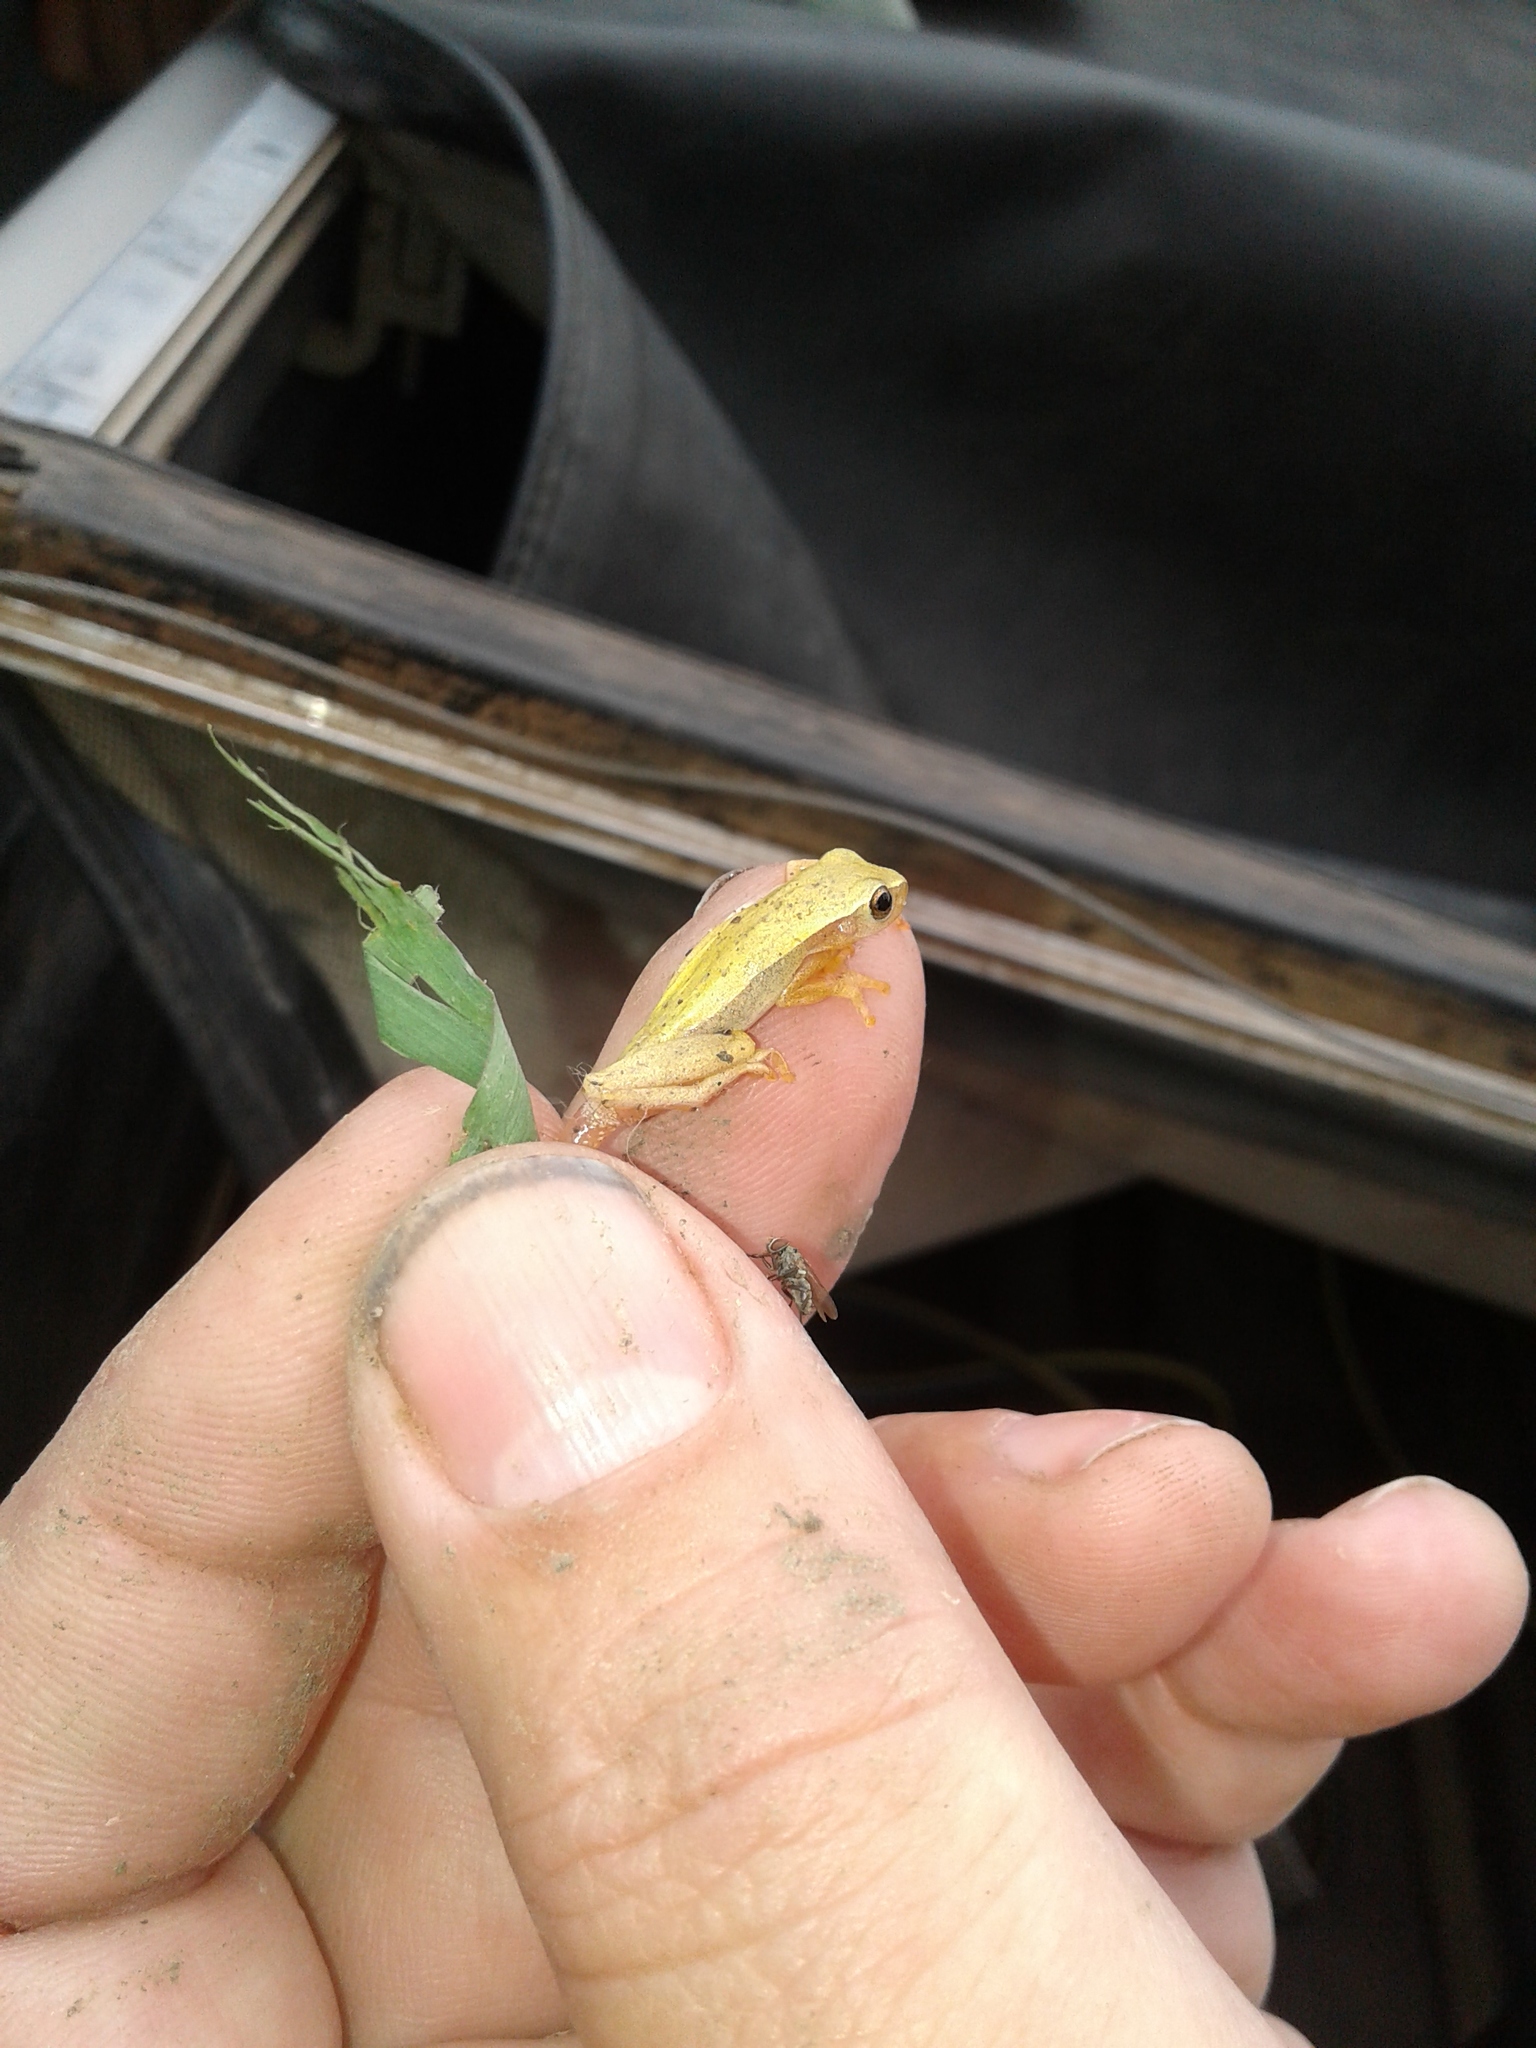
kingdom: Animalia
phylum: Chordata
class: Amphibia
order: Anura
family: Hylidae
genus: Dendropsophus
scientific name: Dendropsophus
